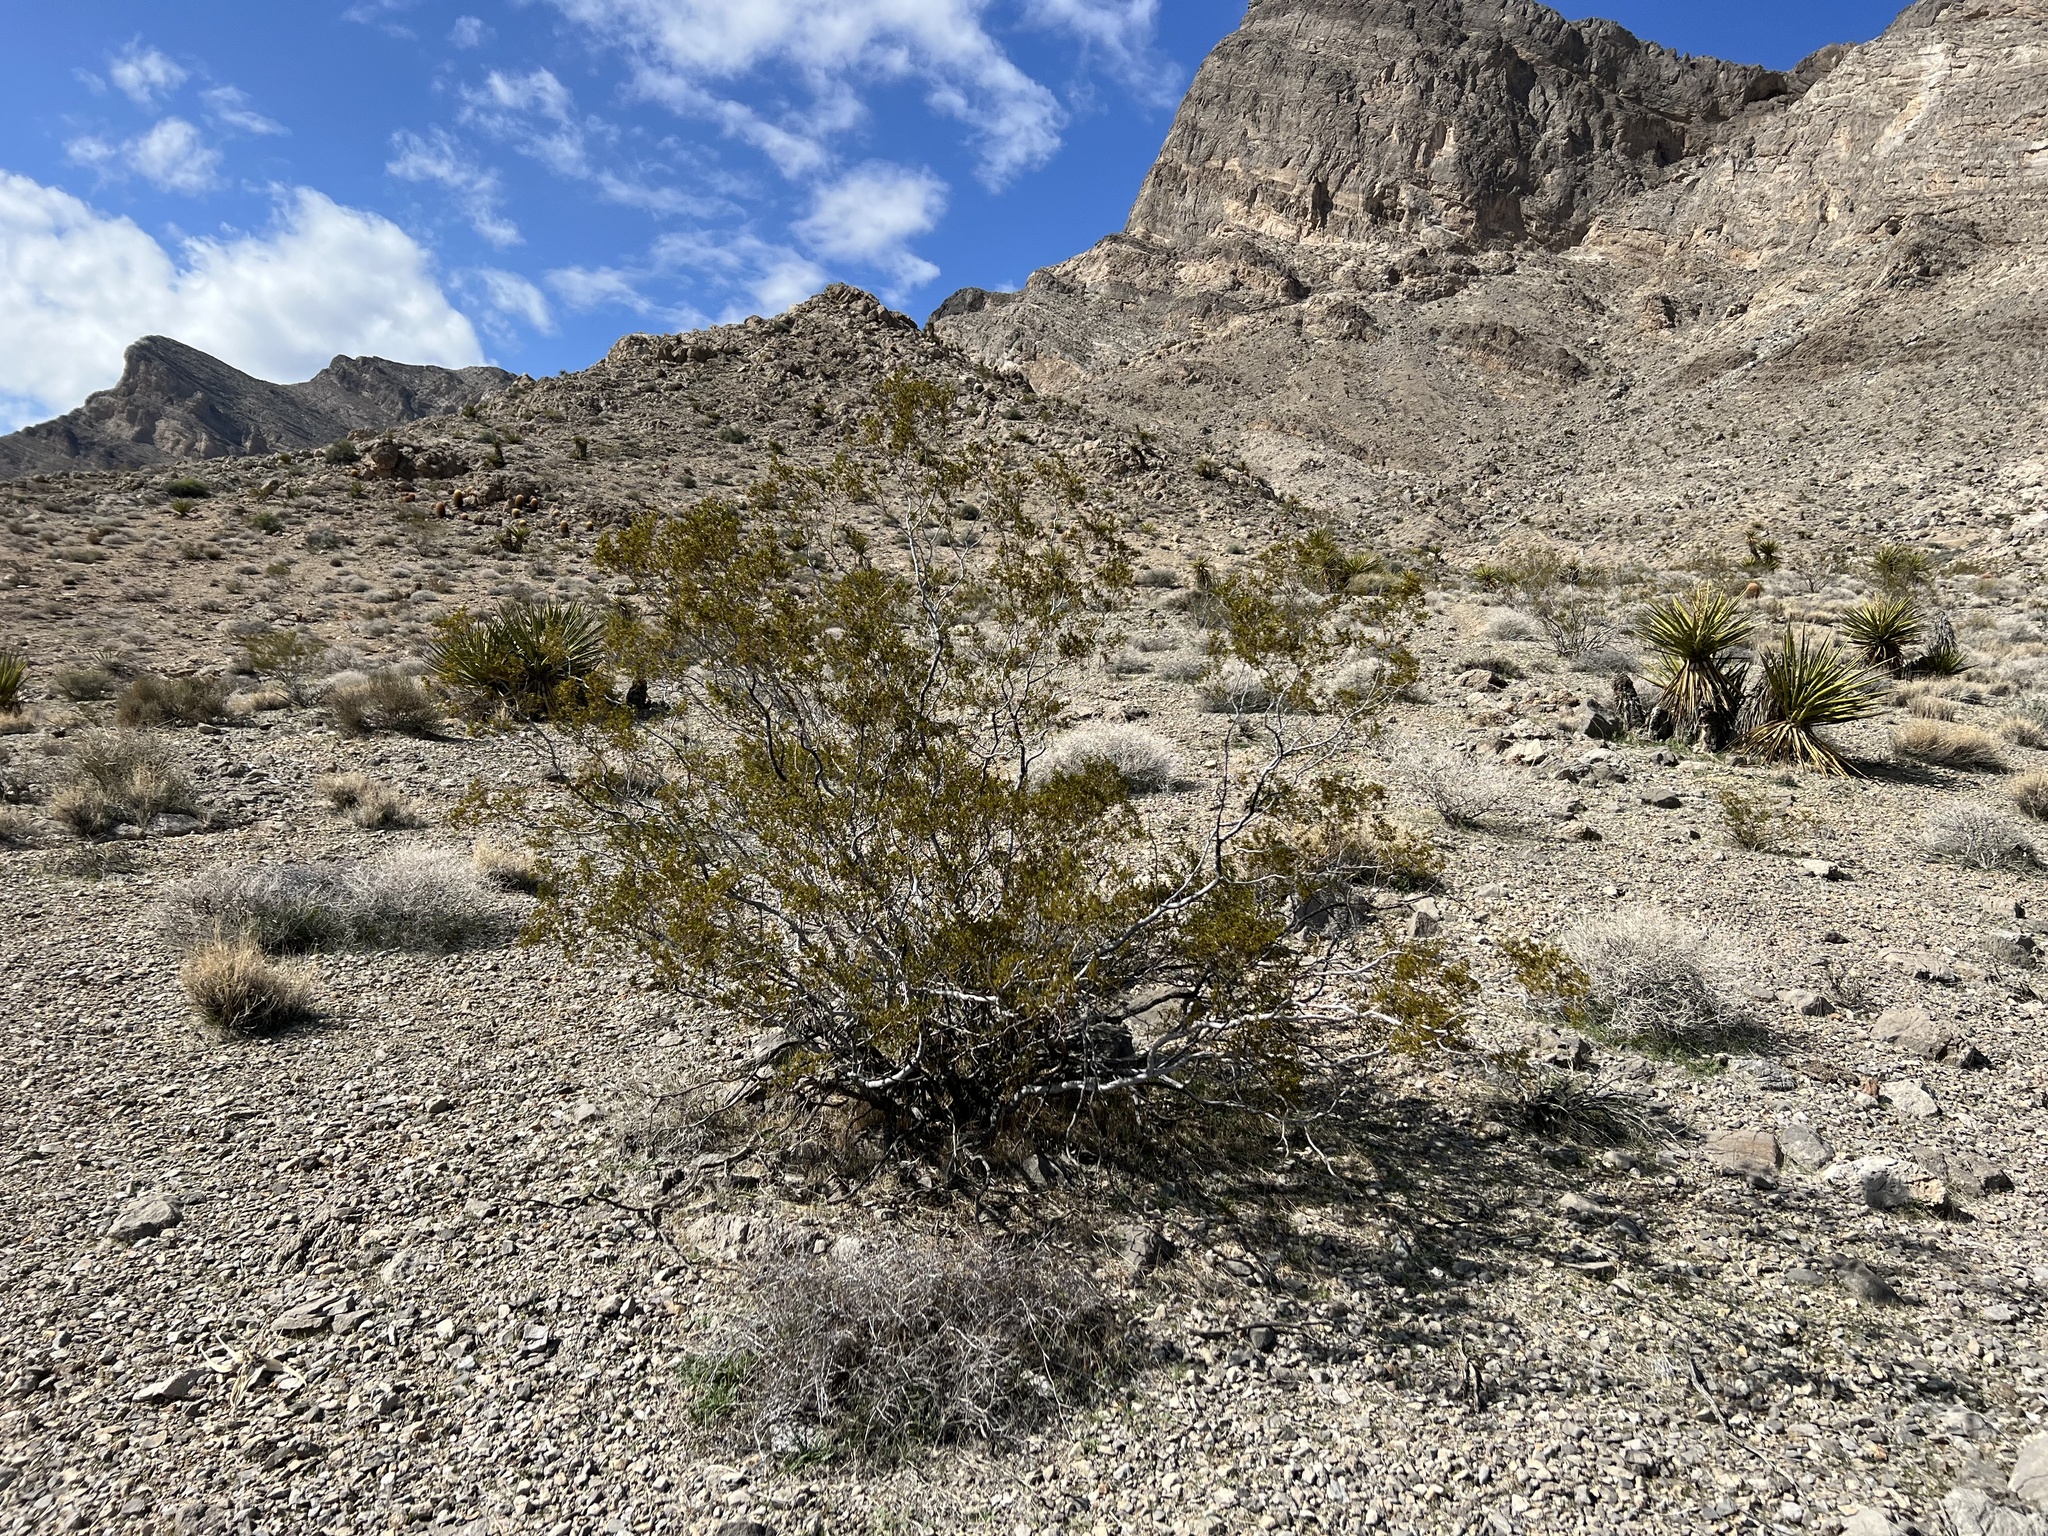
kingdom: Plantae
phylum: Tracheophyta
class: Magnoliopsida
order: Zygophyllales
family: Zygophyllaceae
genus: Larrea
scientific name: Larrea tridentata
